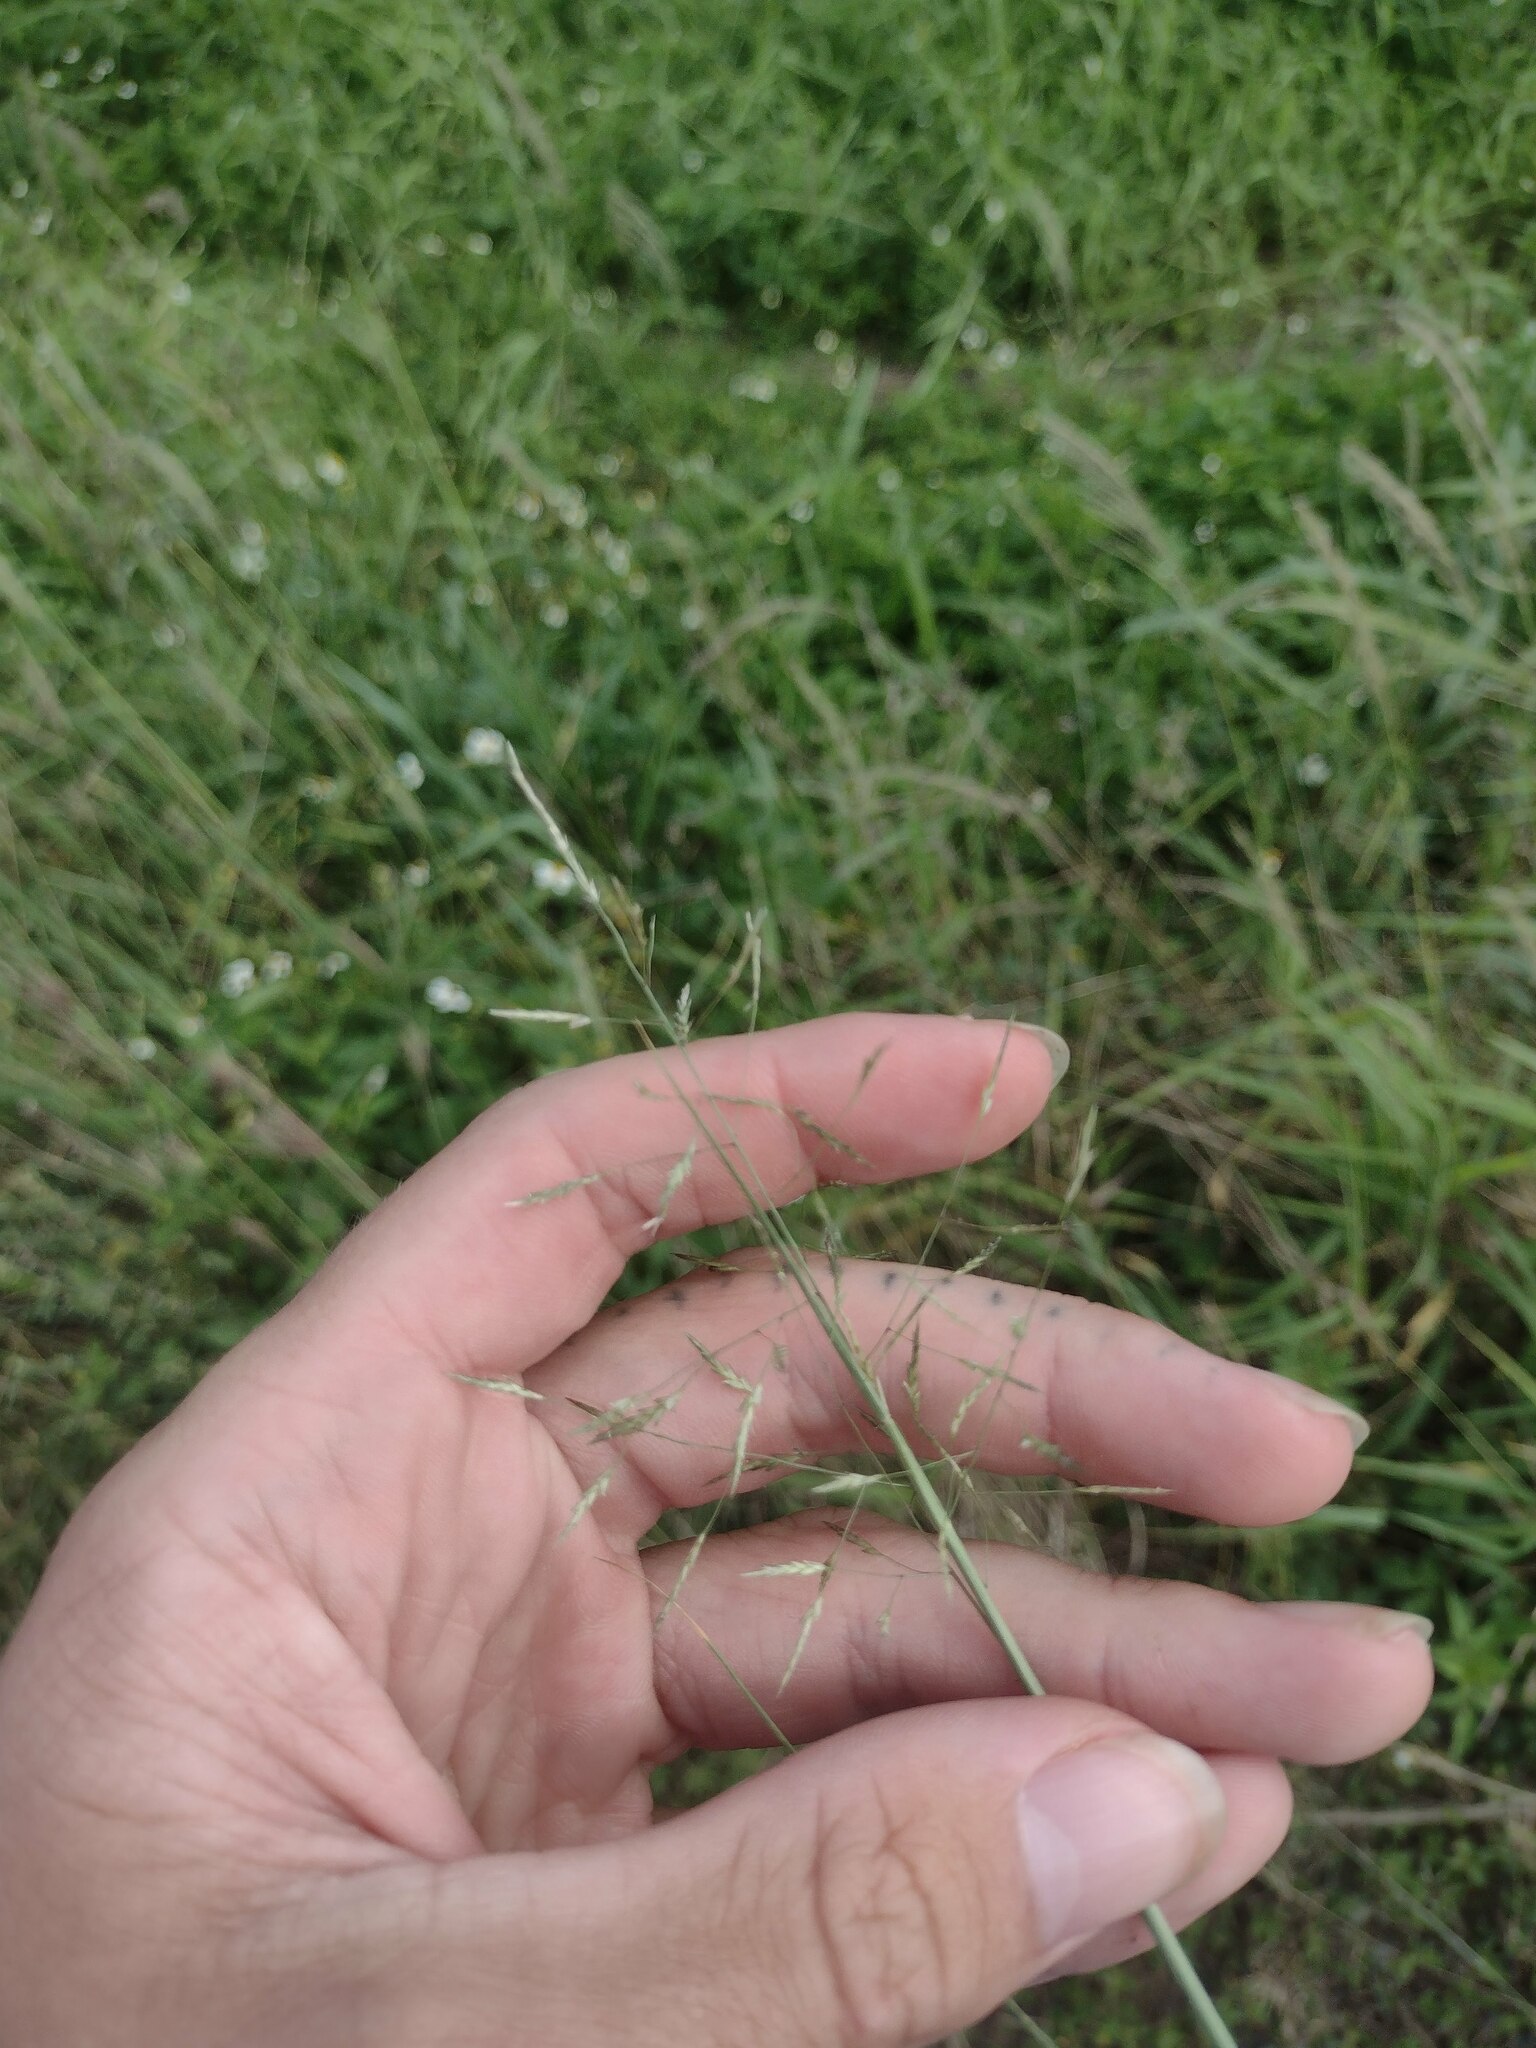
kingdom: Plantae
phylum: Tracheophyta
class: Liliopsida
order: Poales
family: Poaceae
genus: Eragrostis
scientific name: Eragrostis tenuifolia
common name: Elastic grass
